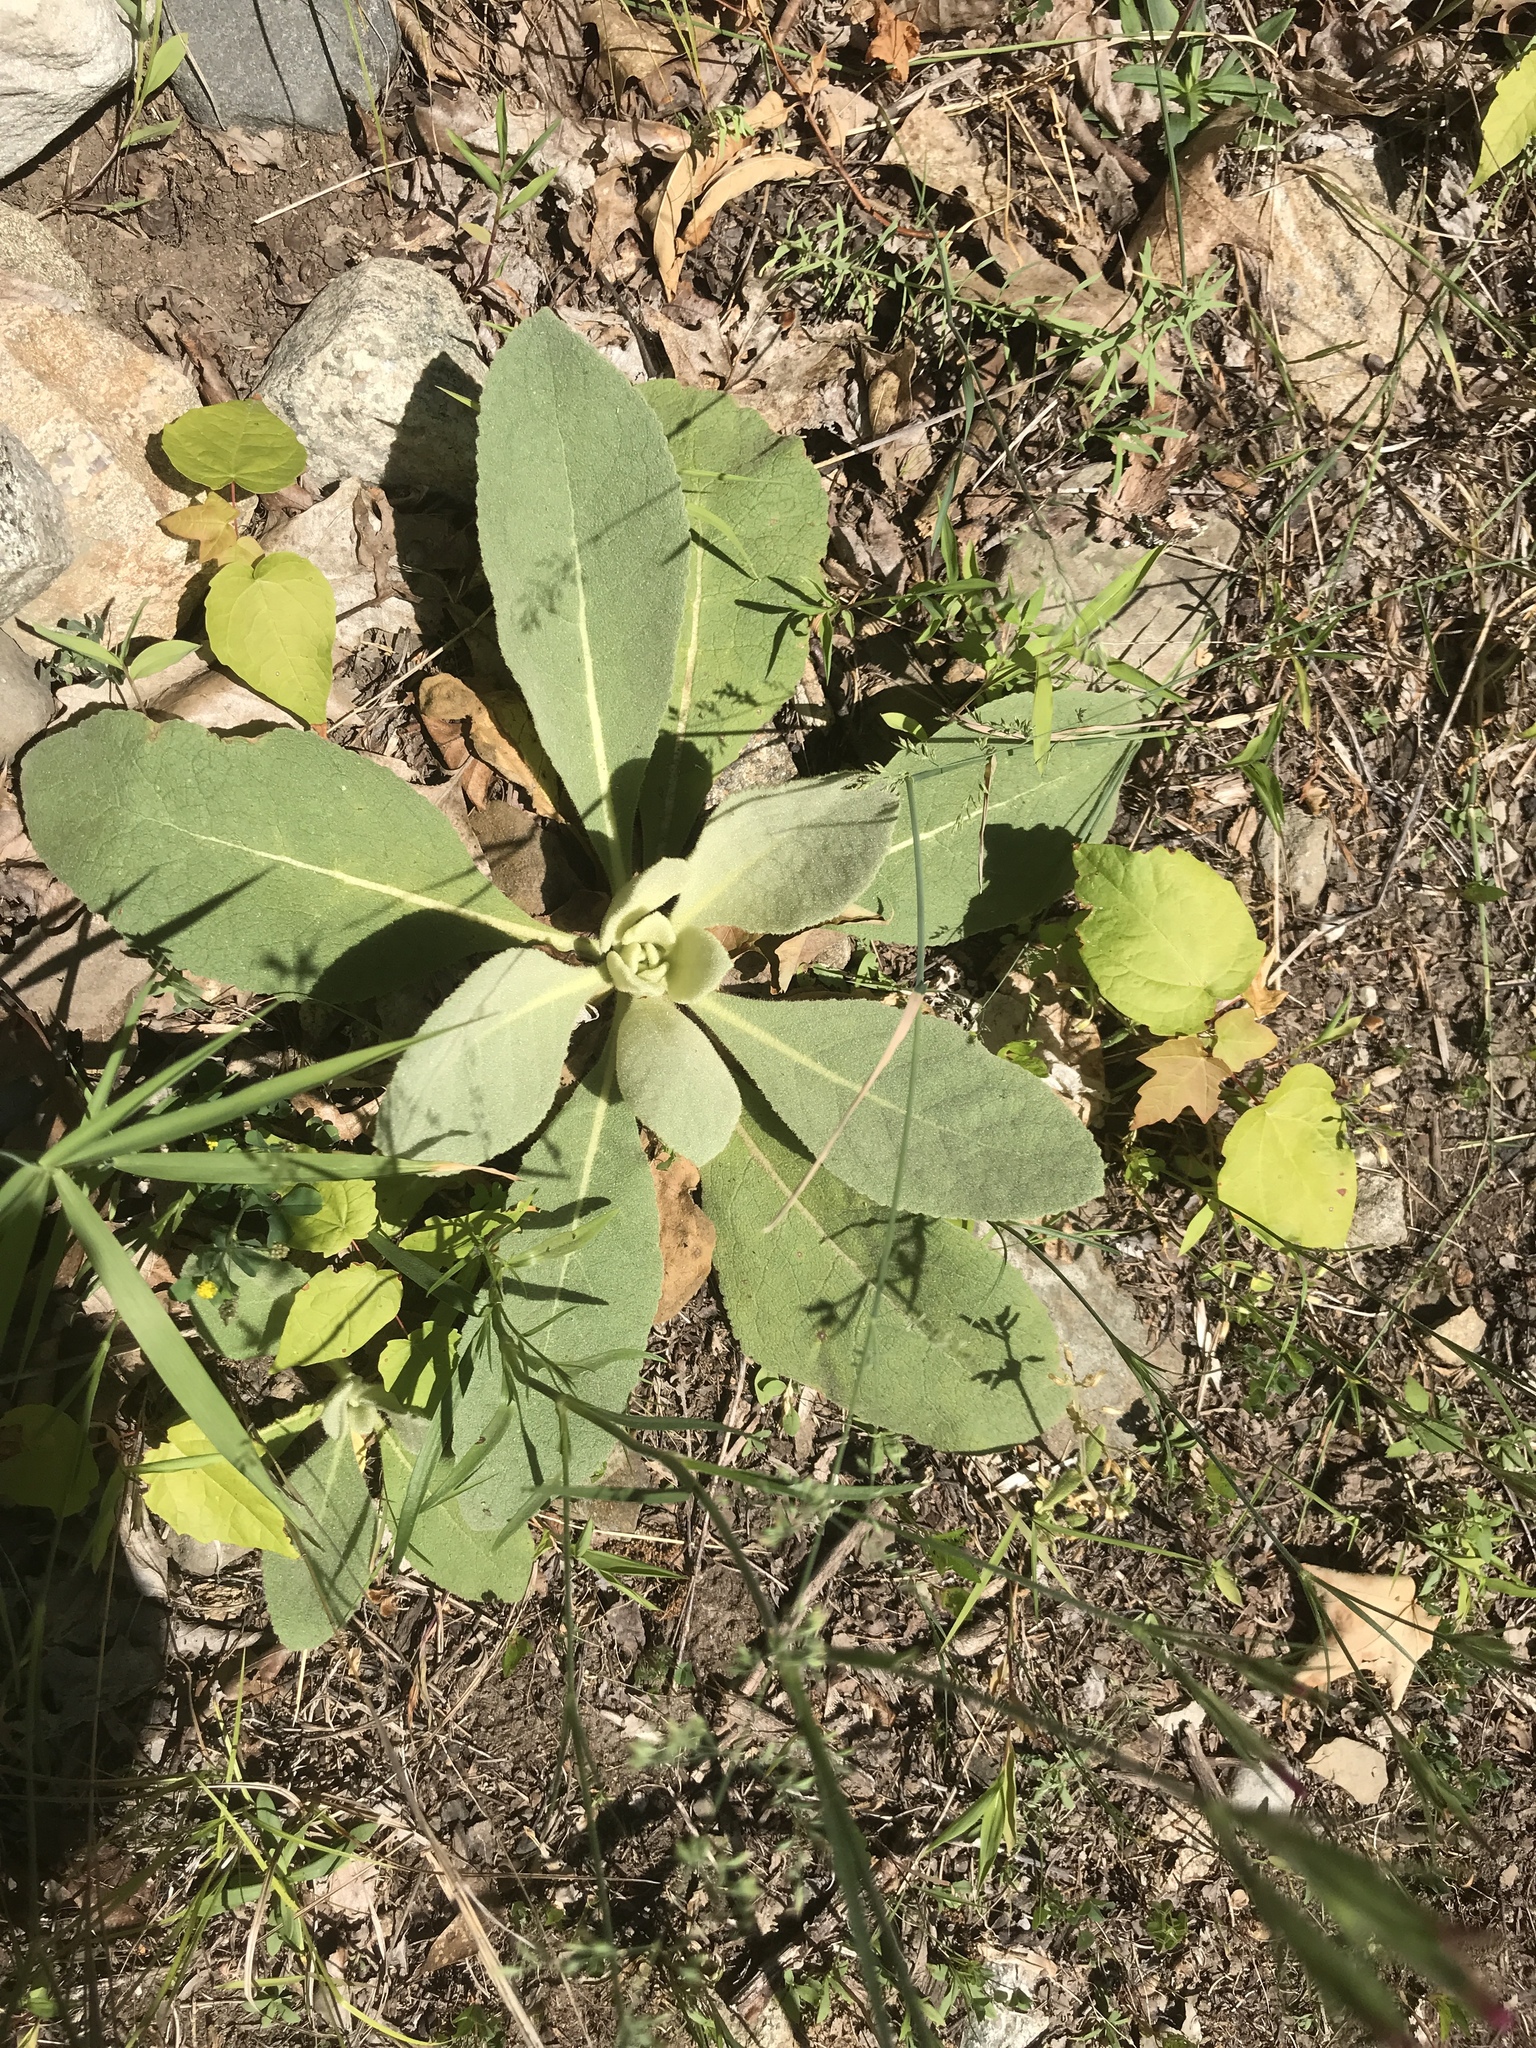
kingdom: Plantae
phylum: Tracheophyta
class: Magnoliopsida
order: Lamiales
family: Scrophulariaceae
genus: Verbascum
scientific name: Verbascum thapsus
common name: Common mullein
